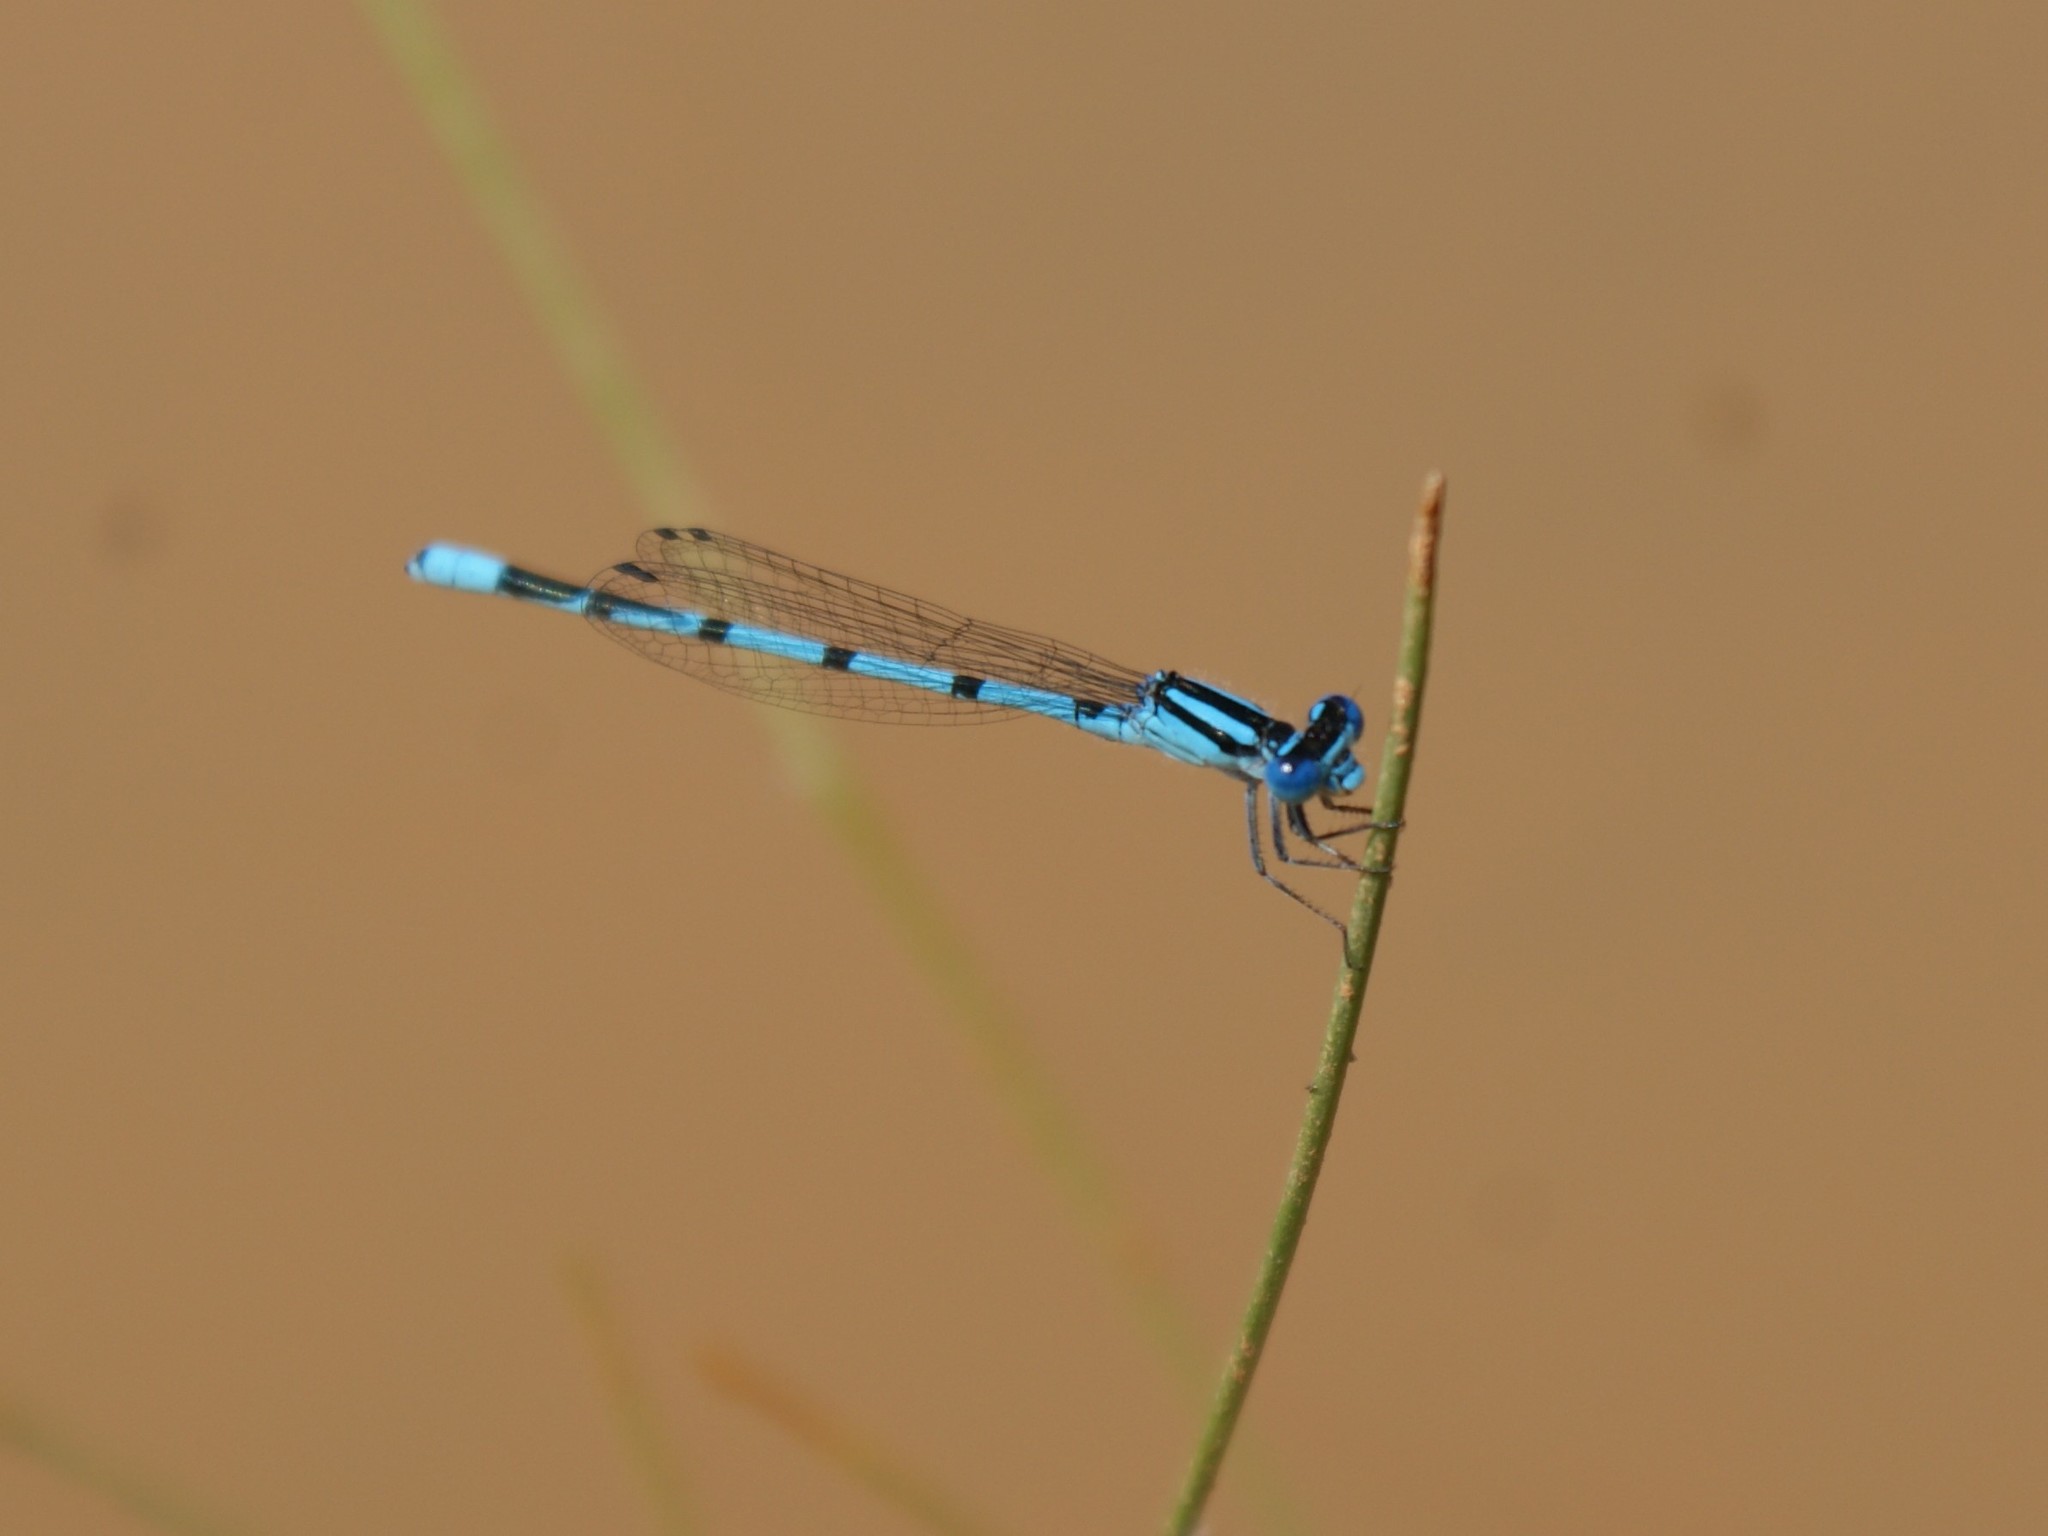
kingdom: Animalia
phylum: Arthropoda
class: Insecta
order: Odonata
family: Coenagrionidae
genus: Enallagma
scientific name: Enallagma doubledayi
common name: Atlantic bluet
